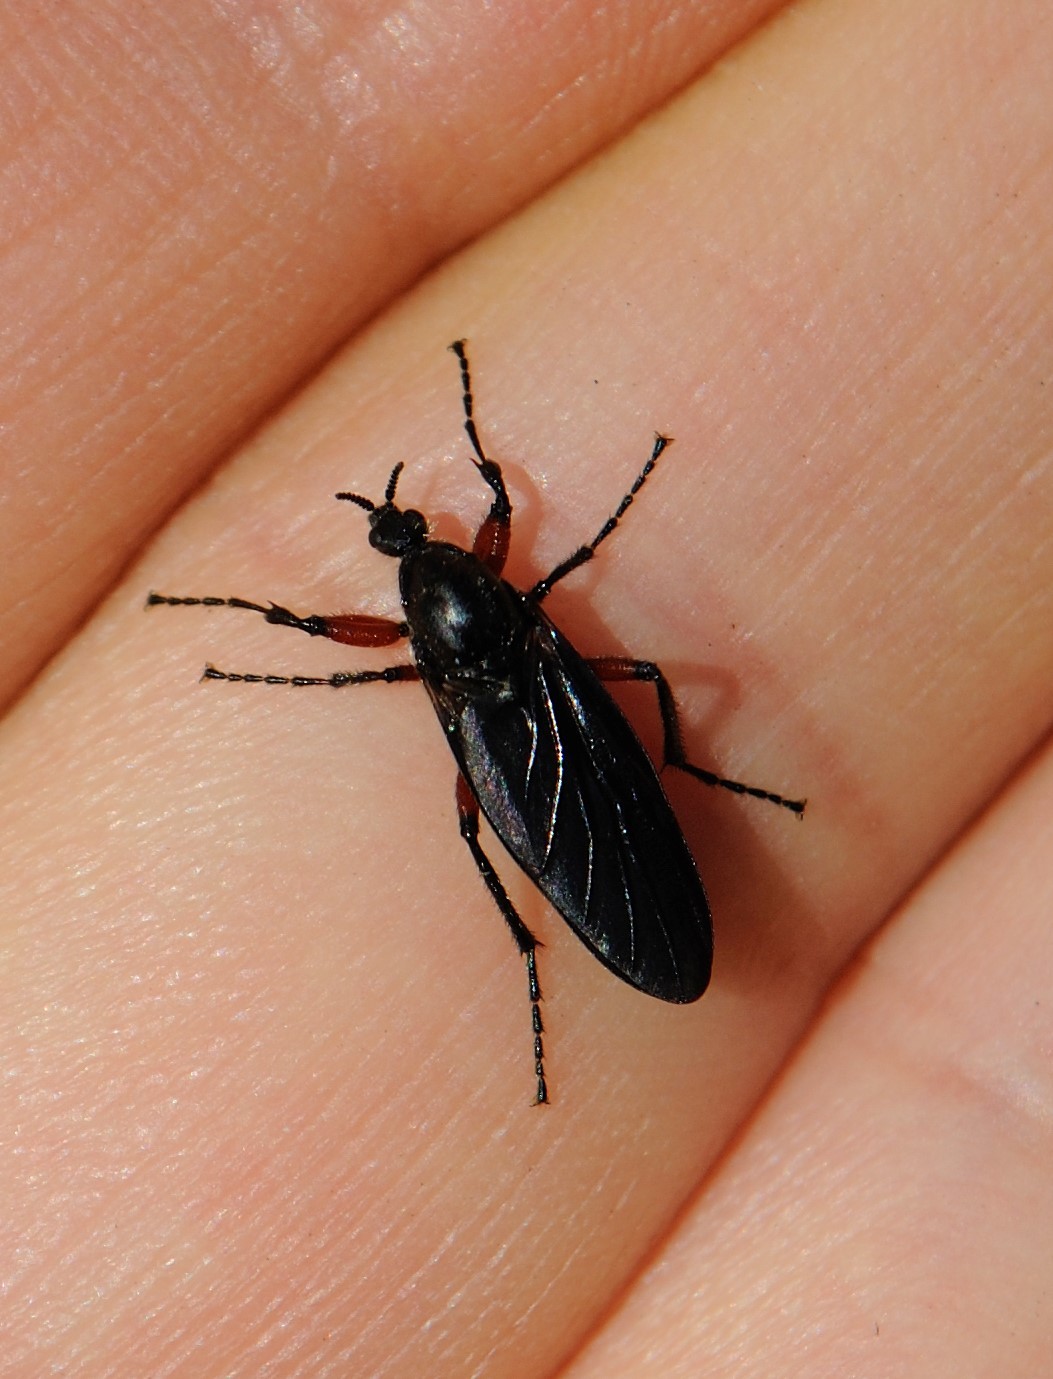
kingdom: Animalia
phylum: Arthropoda
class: Insecta
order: Diptera
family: Bibionidae
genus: Bibio
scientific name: Bibio femoratus
